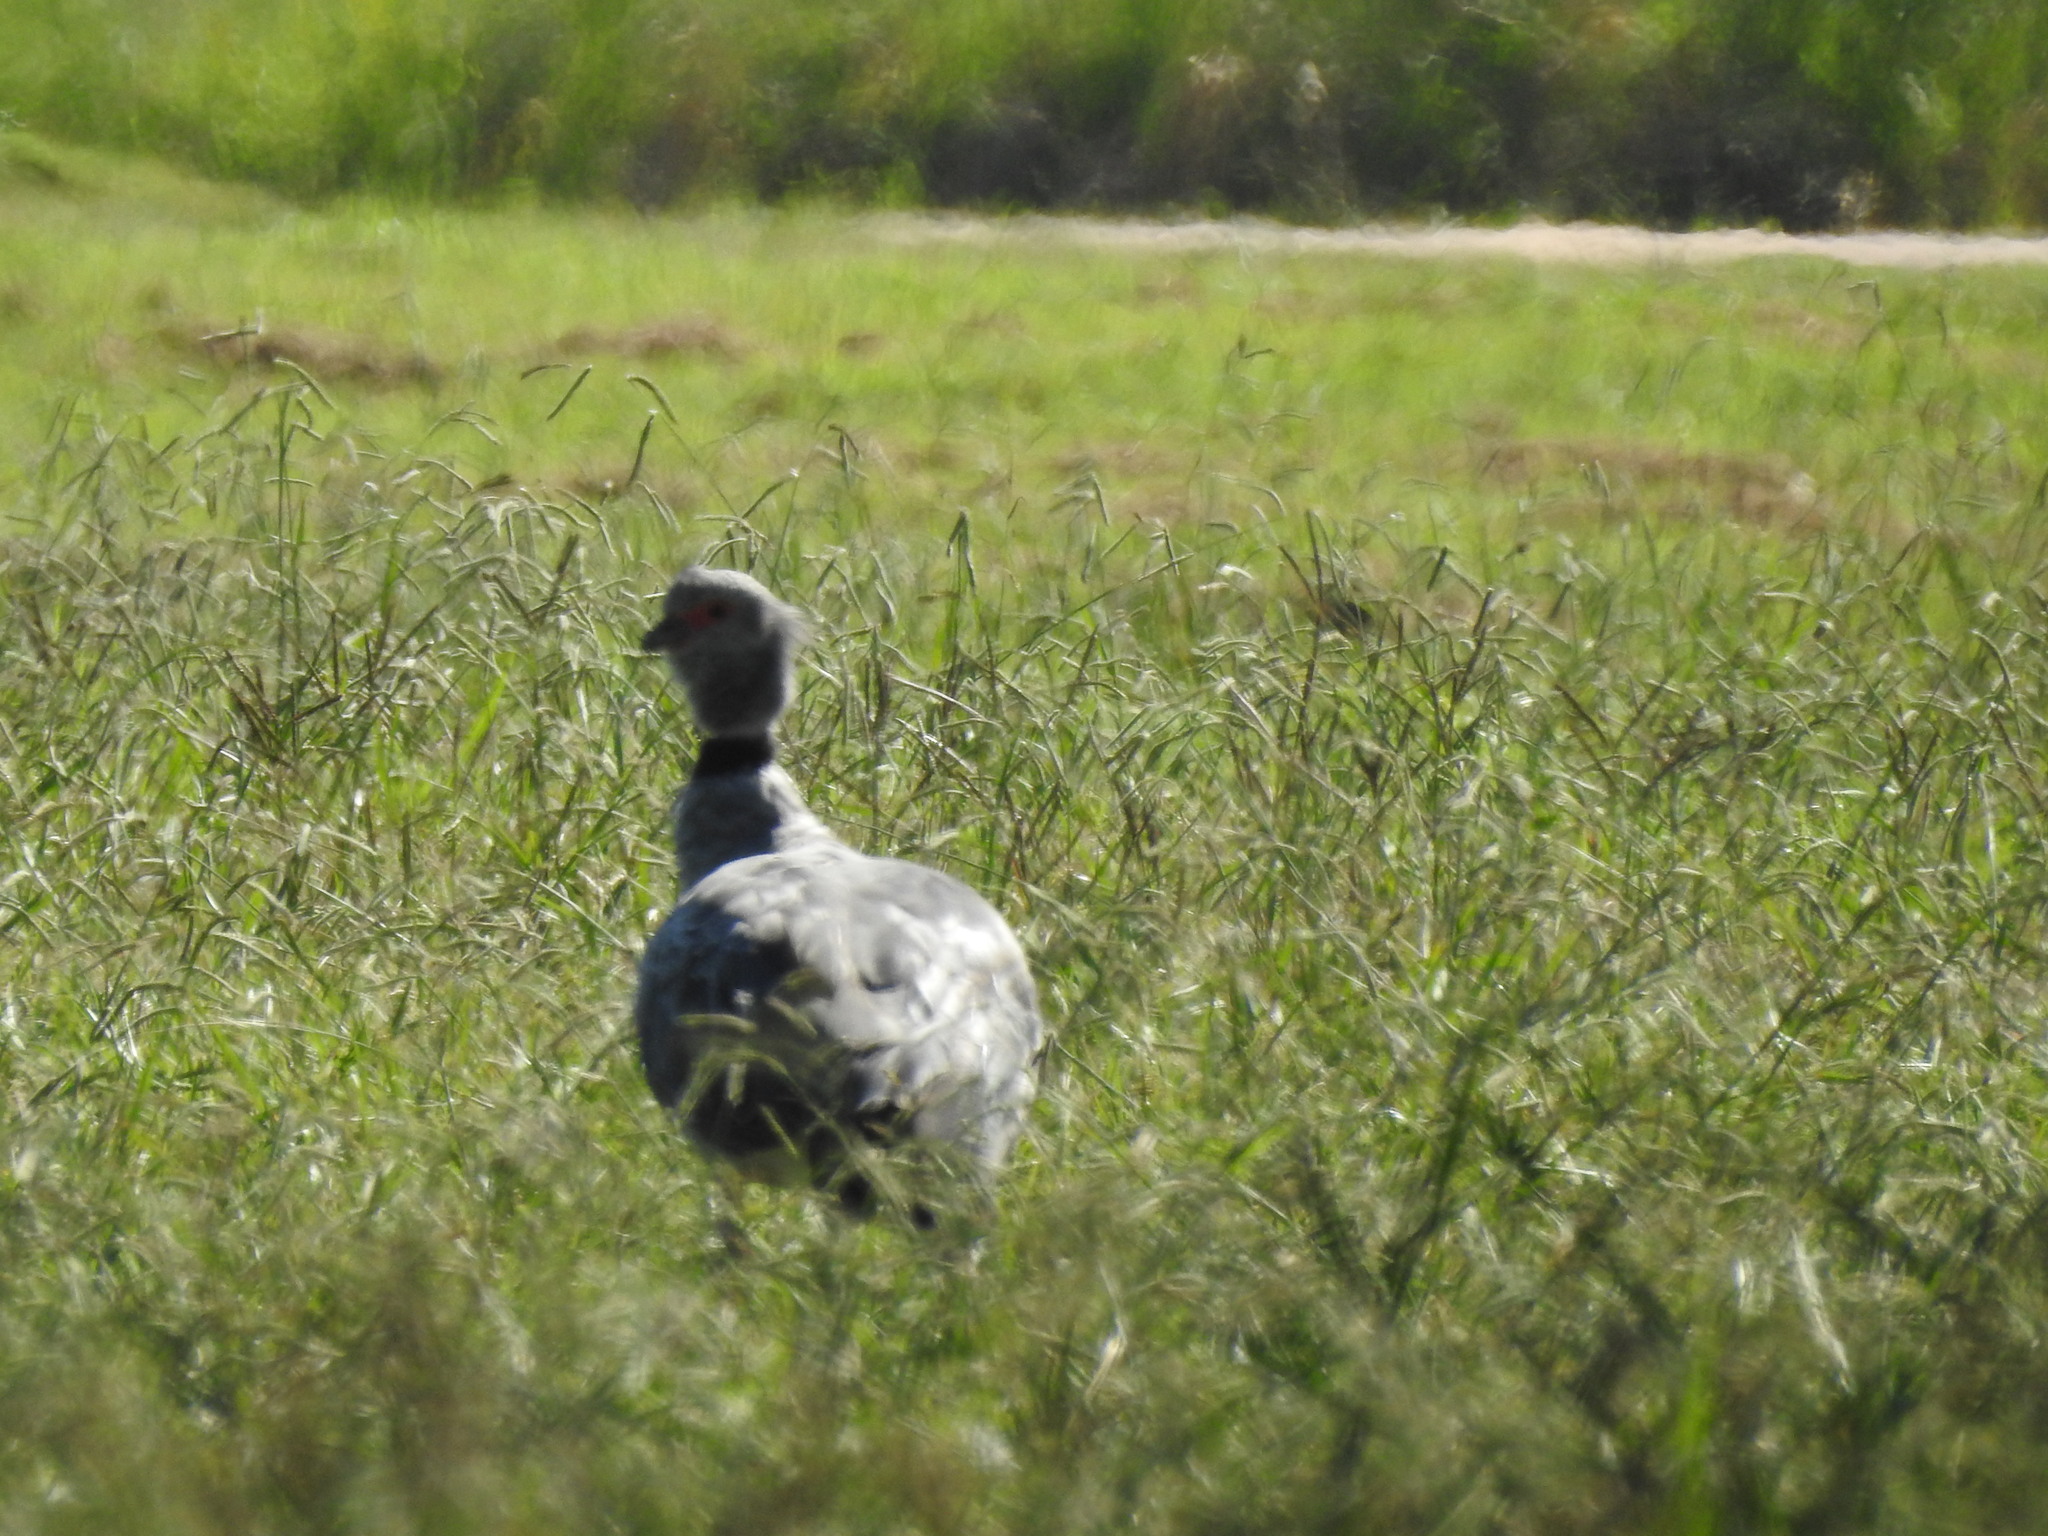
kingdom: Animalia
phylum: Chordata
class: Aves
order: Anseriformes
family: Anhimidae
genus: Chauna
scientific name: Chauna torquata
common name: Southern screamer
